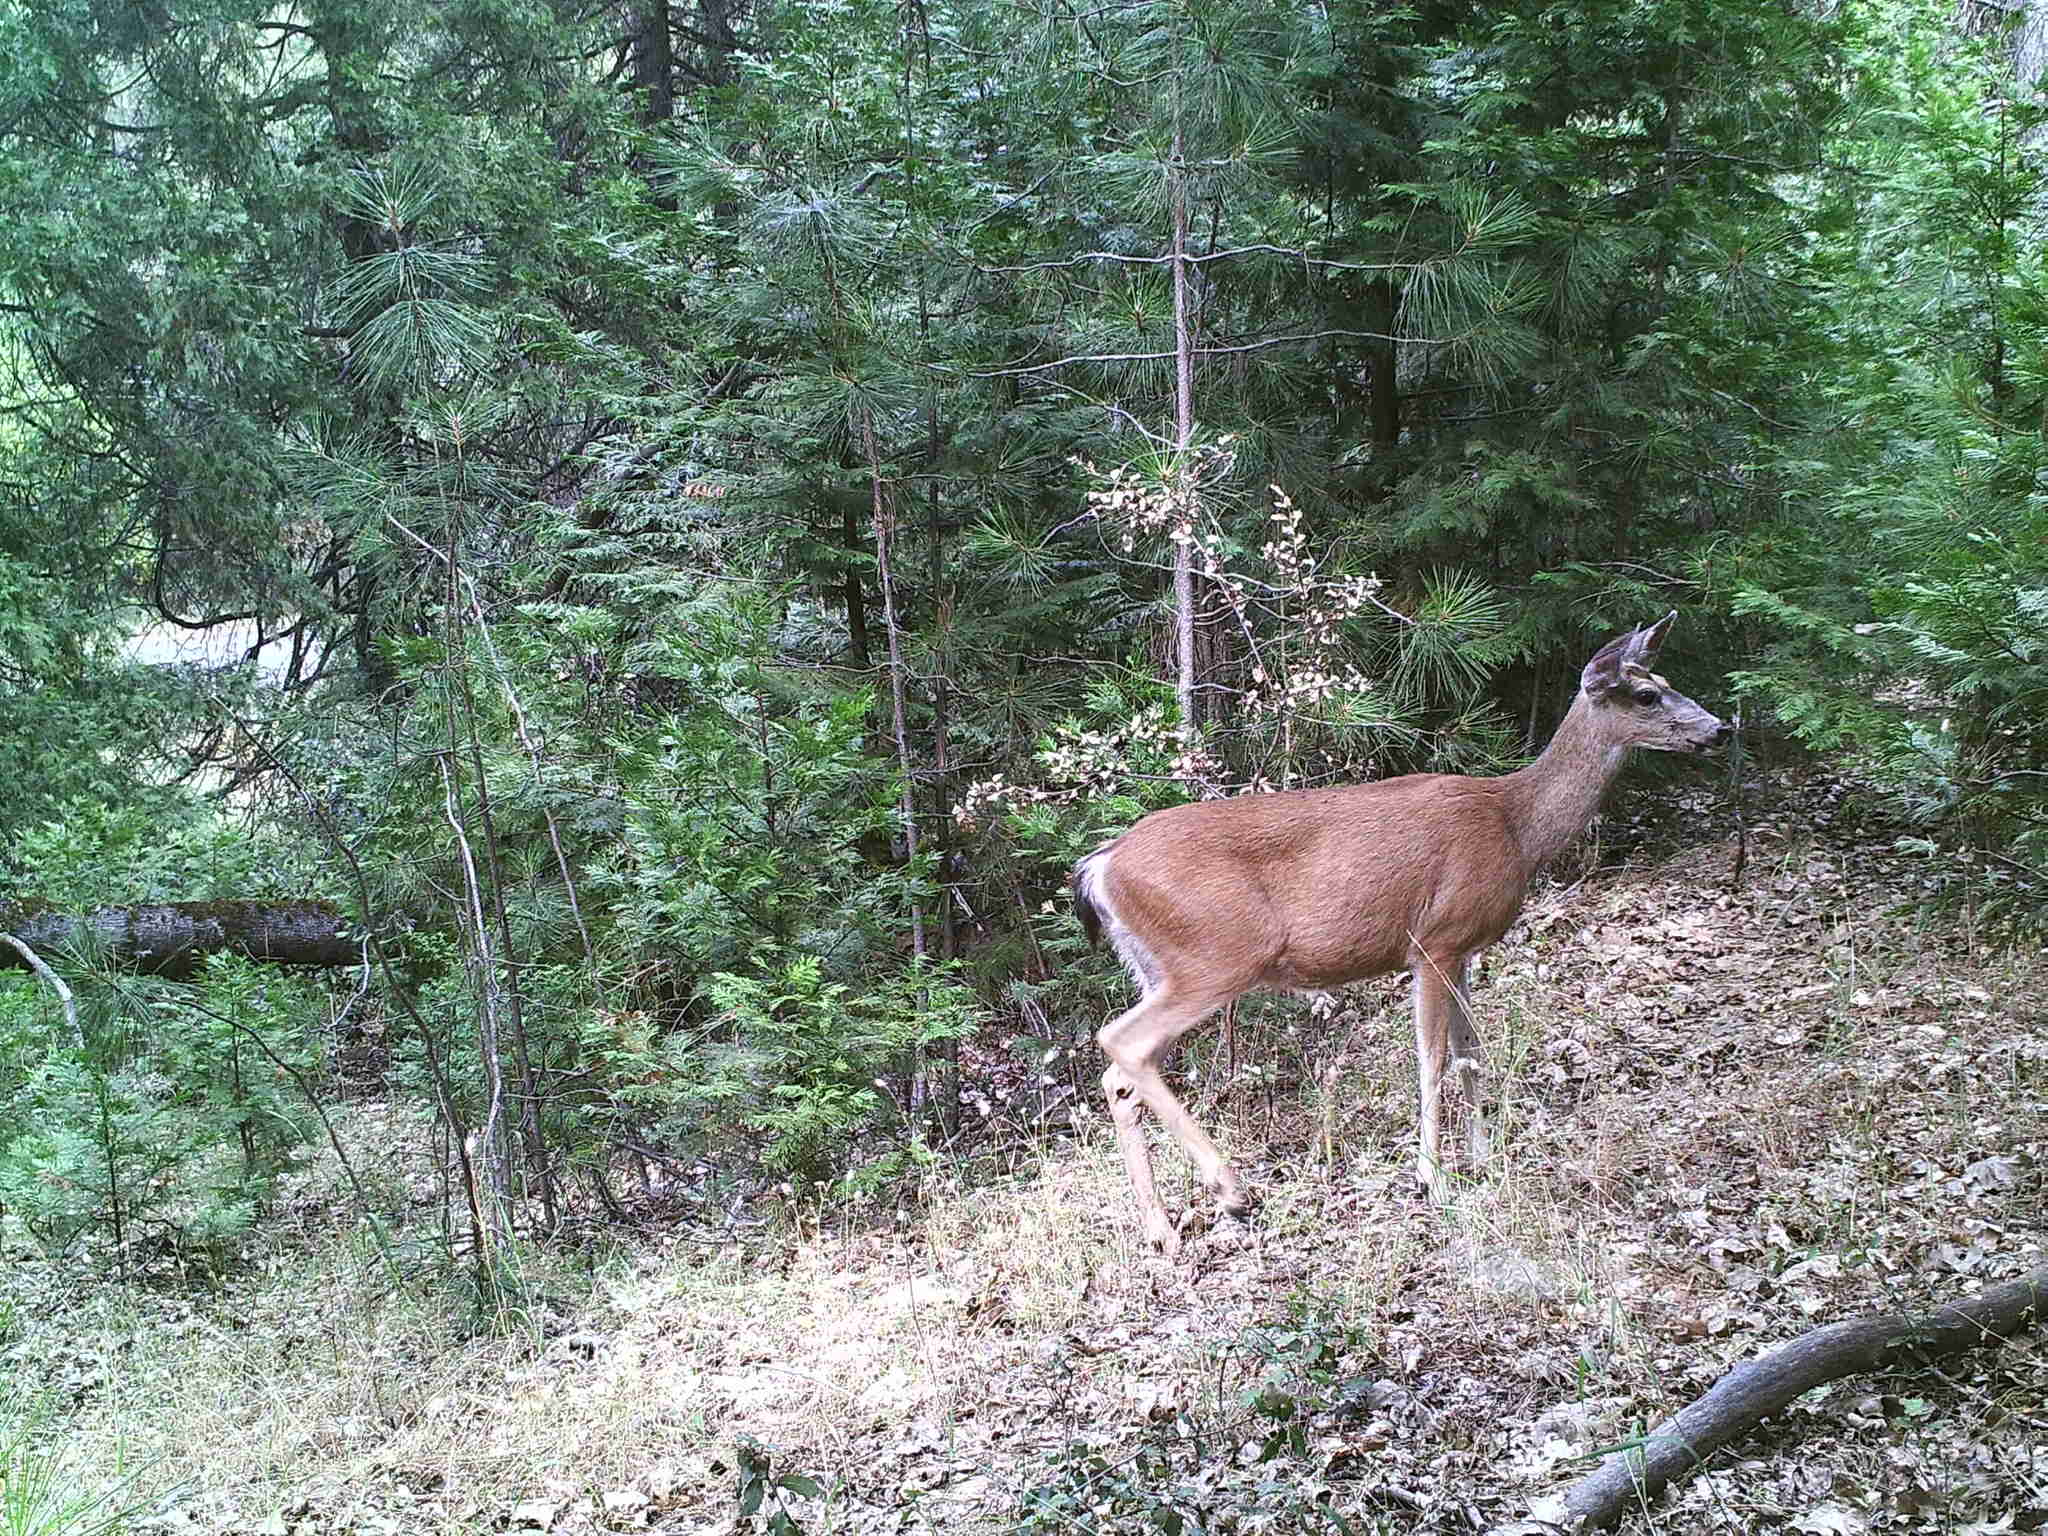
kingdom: Animalia
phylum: Chordata
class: Mammalia
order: Artiodactyla
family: Cervidae
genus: Odocoileus
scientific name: Odocoileus hemionus
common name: Mule deer
